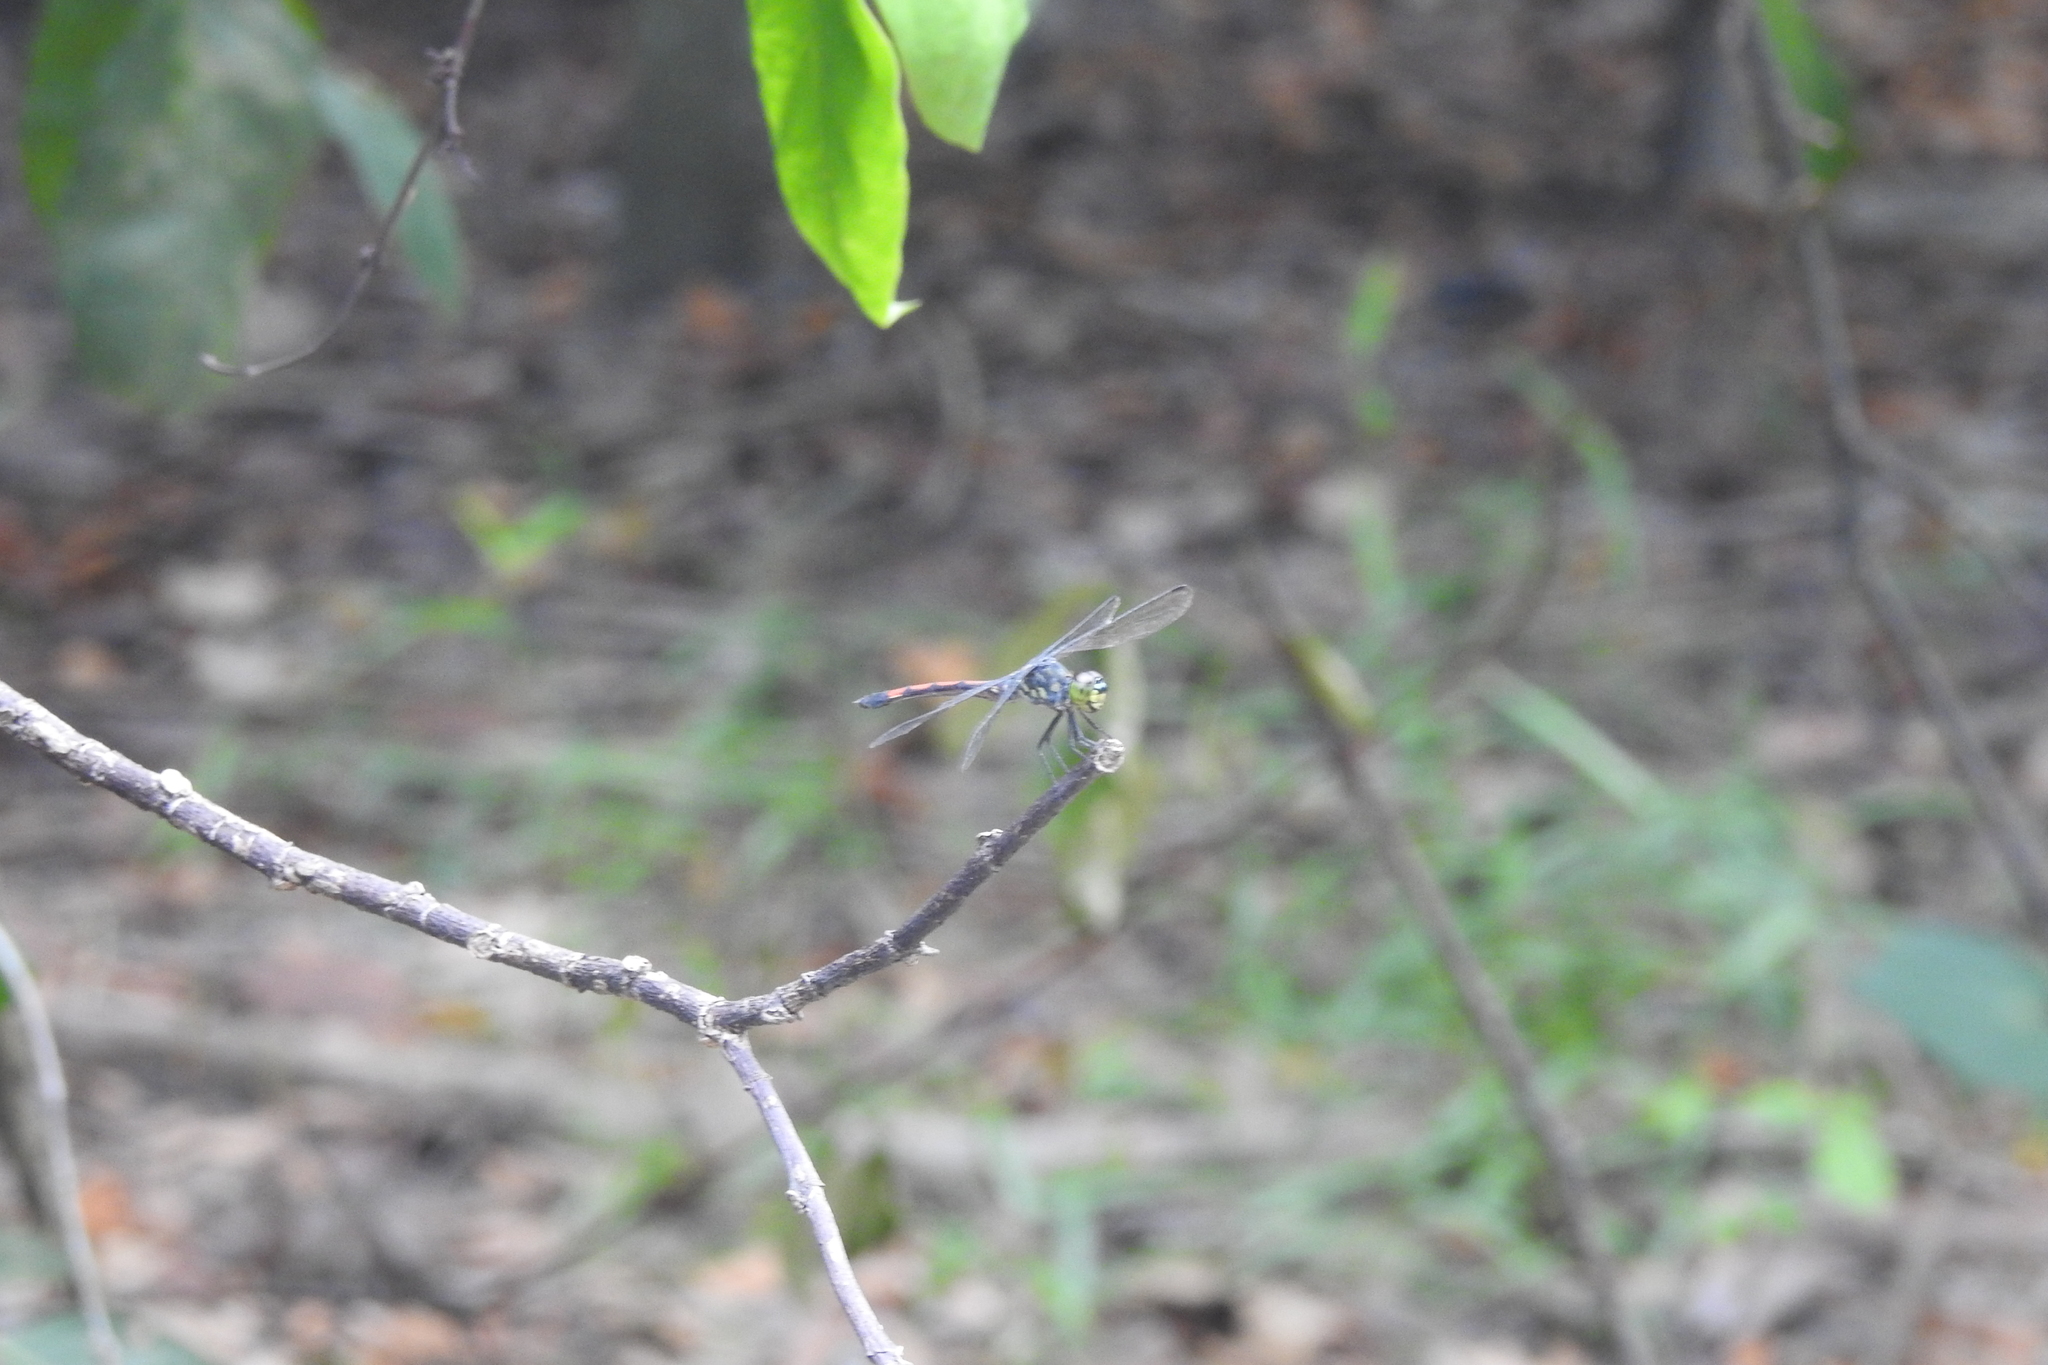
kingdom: Animalia
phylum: Arthropoda
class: Insecta
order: Odonata
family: Libellulidae
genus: Agrionoptera
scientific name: Agrionoptera insignis
